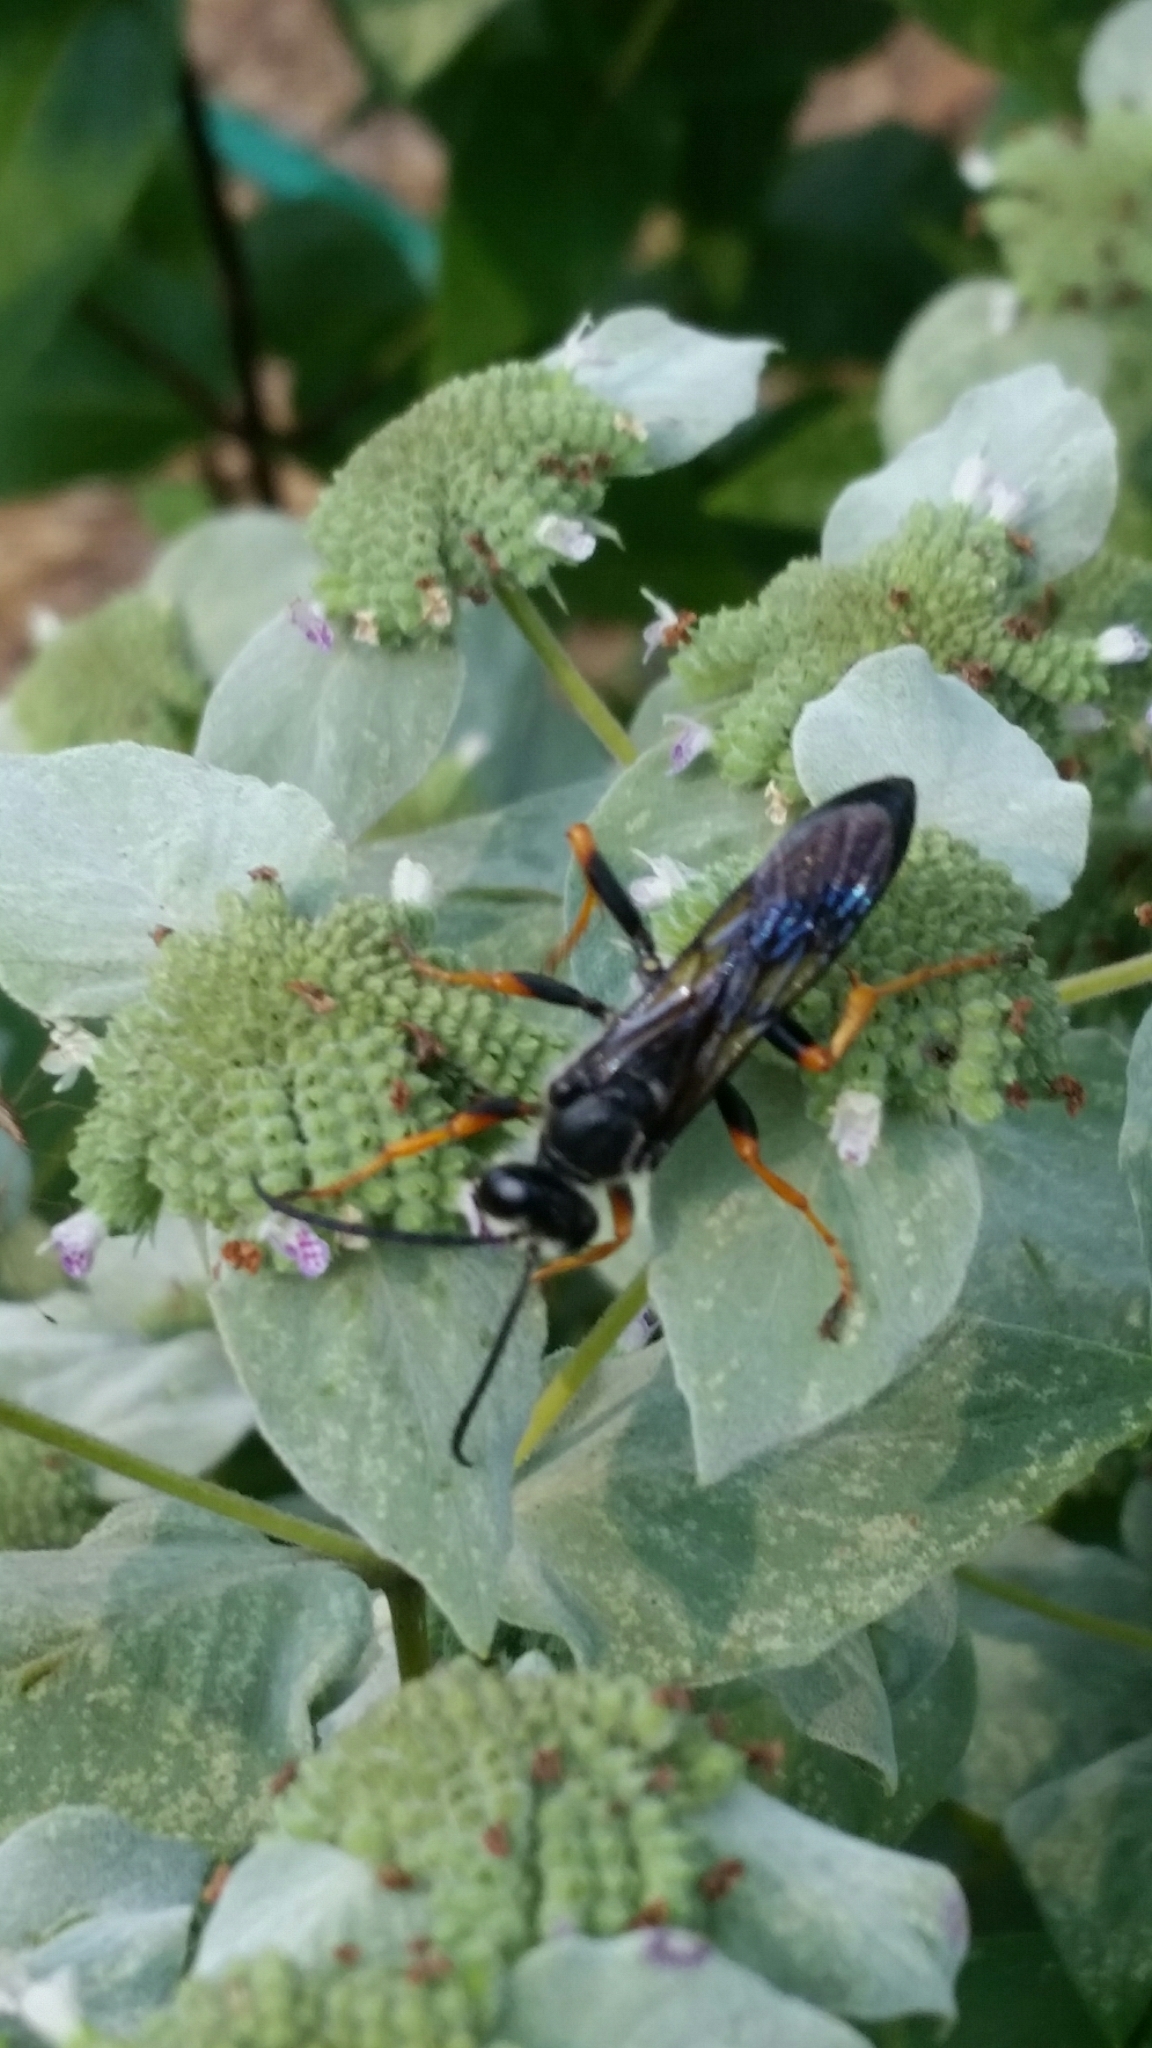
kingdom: Animalia
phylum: Arthropoda
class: Insecta
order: Hymenoptera
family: Sphecidae
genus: Sphex
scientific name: Sphex nudus
